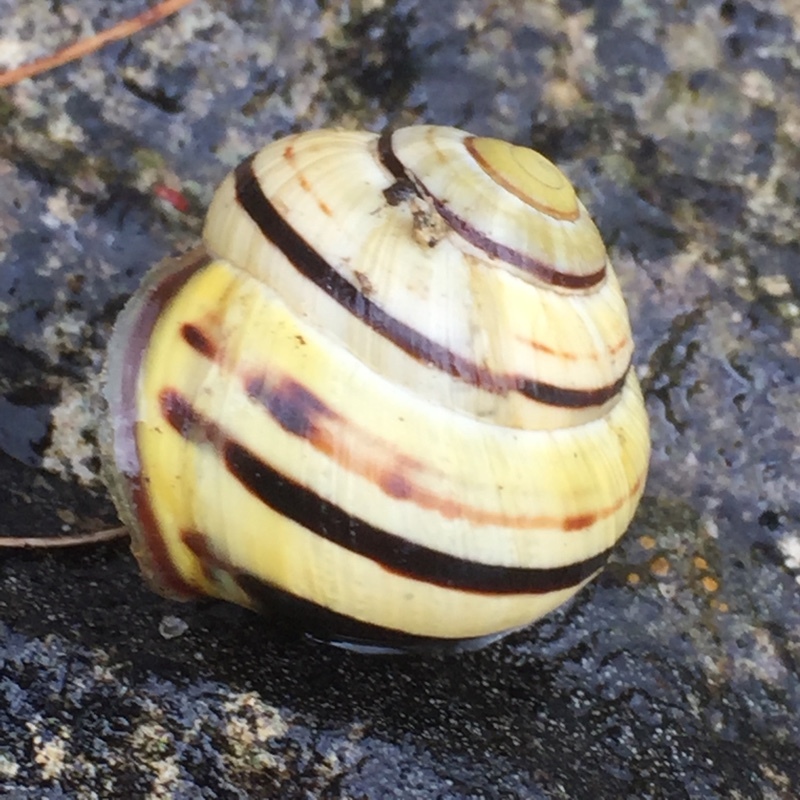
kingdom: Animalia
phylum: Mollusca
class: Gastropoda
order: Stylommatophora
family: Helicidae
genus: Cepaea
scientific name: Cepaea nemoralis
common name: Grovesnail
